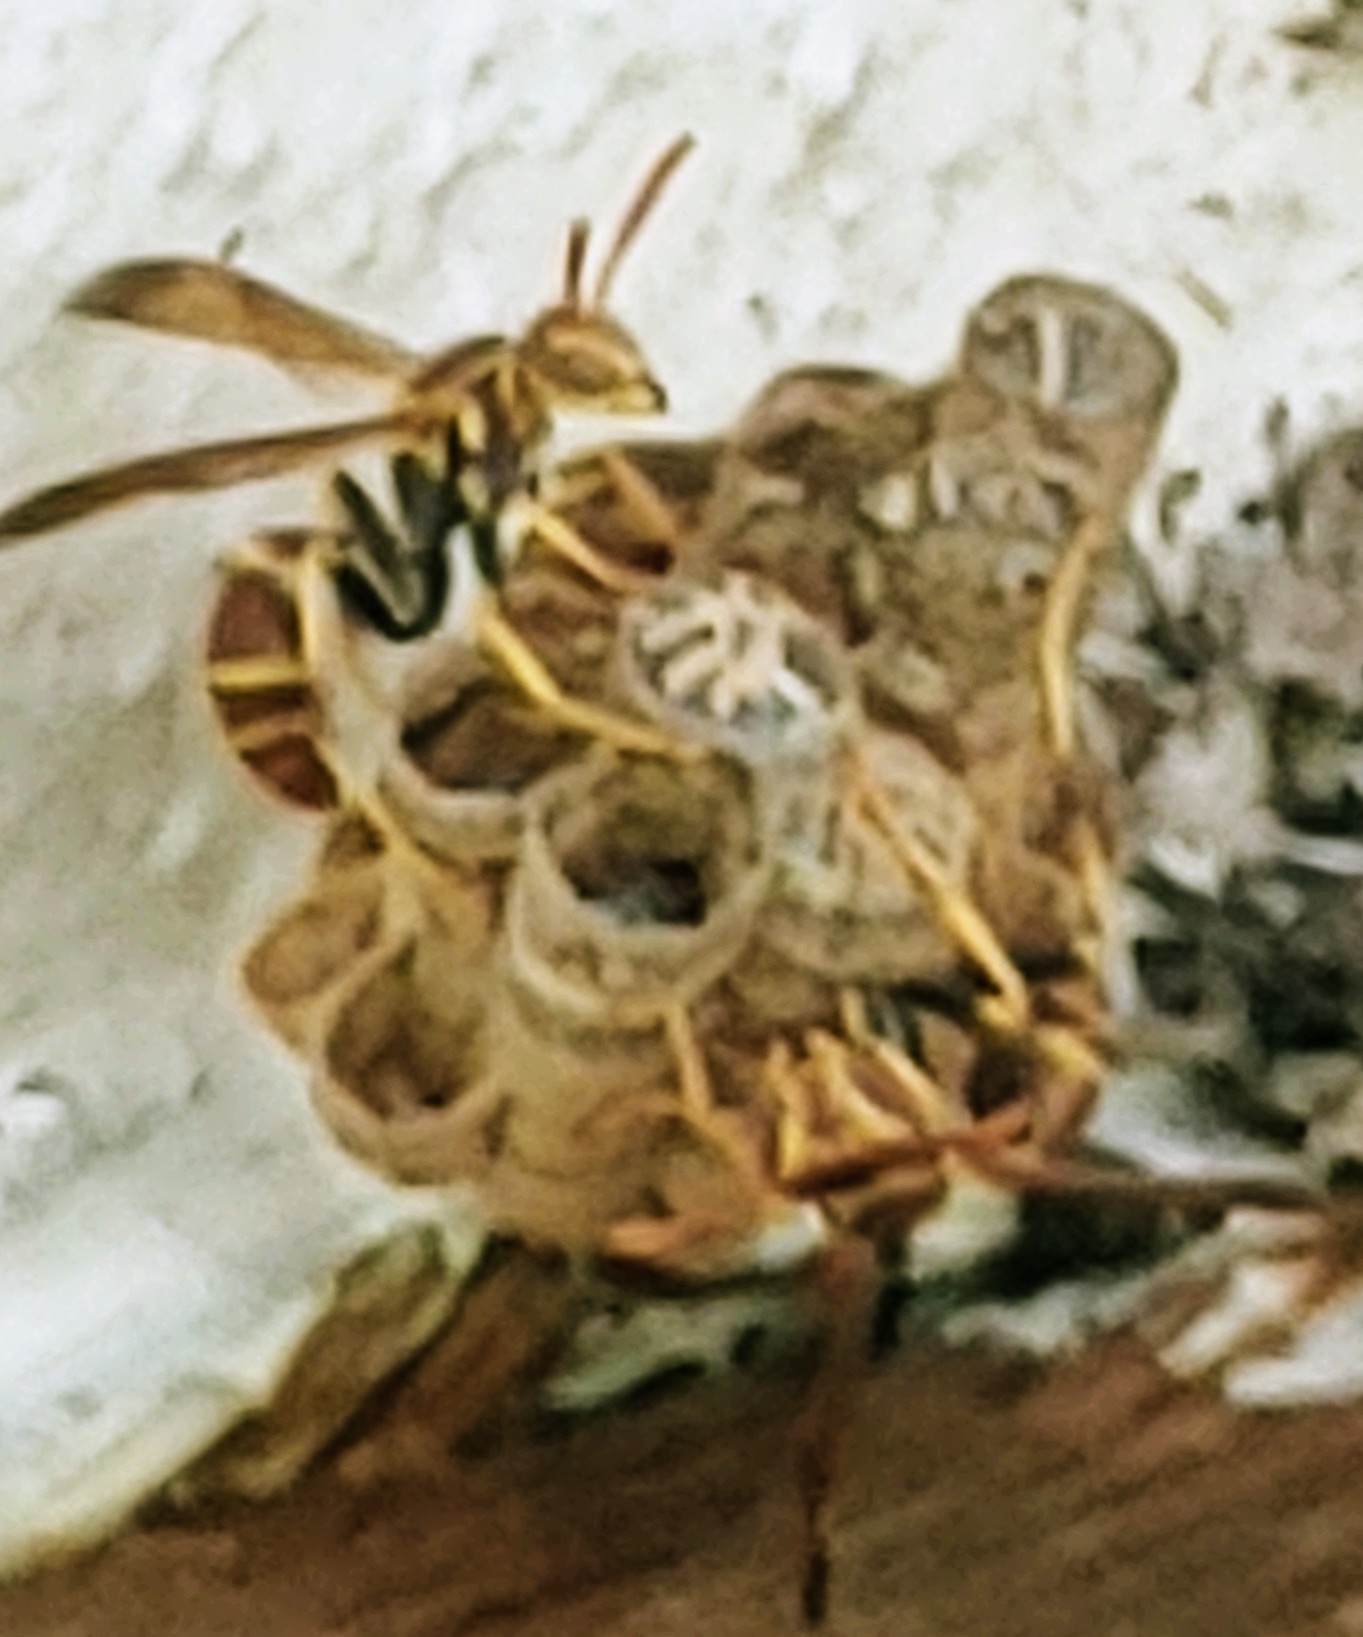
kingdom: Animalia
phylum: Arthropoda
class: Insecta
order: Hymenoptera
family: Vespidae
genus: Mischocyttarus
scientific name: Mischocyttarus mexicanus
